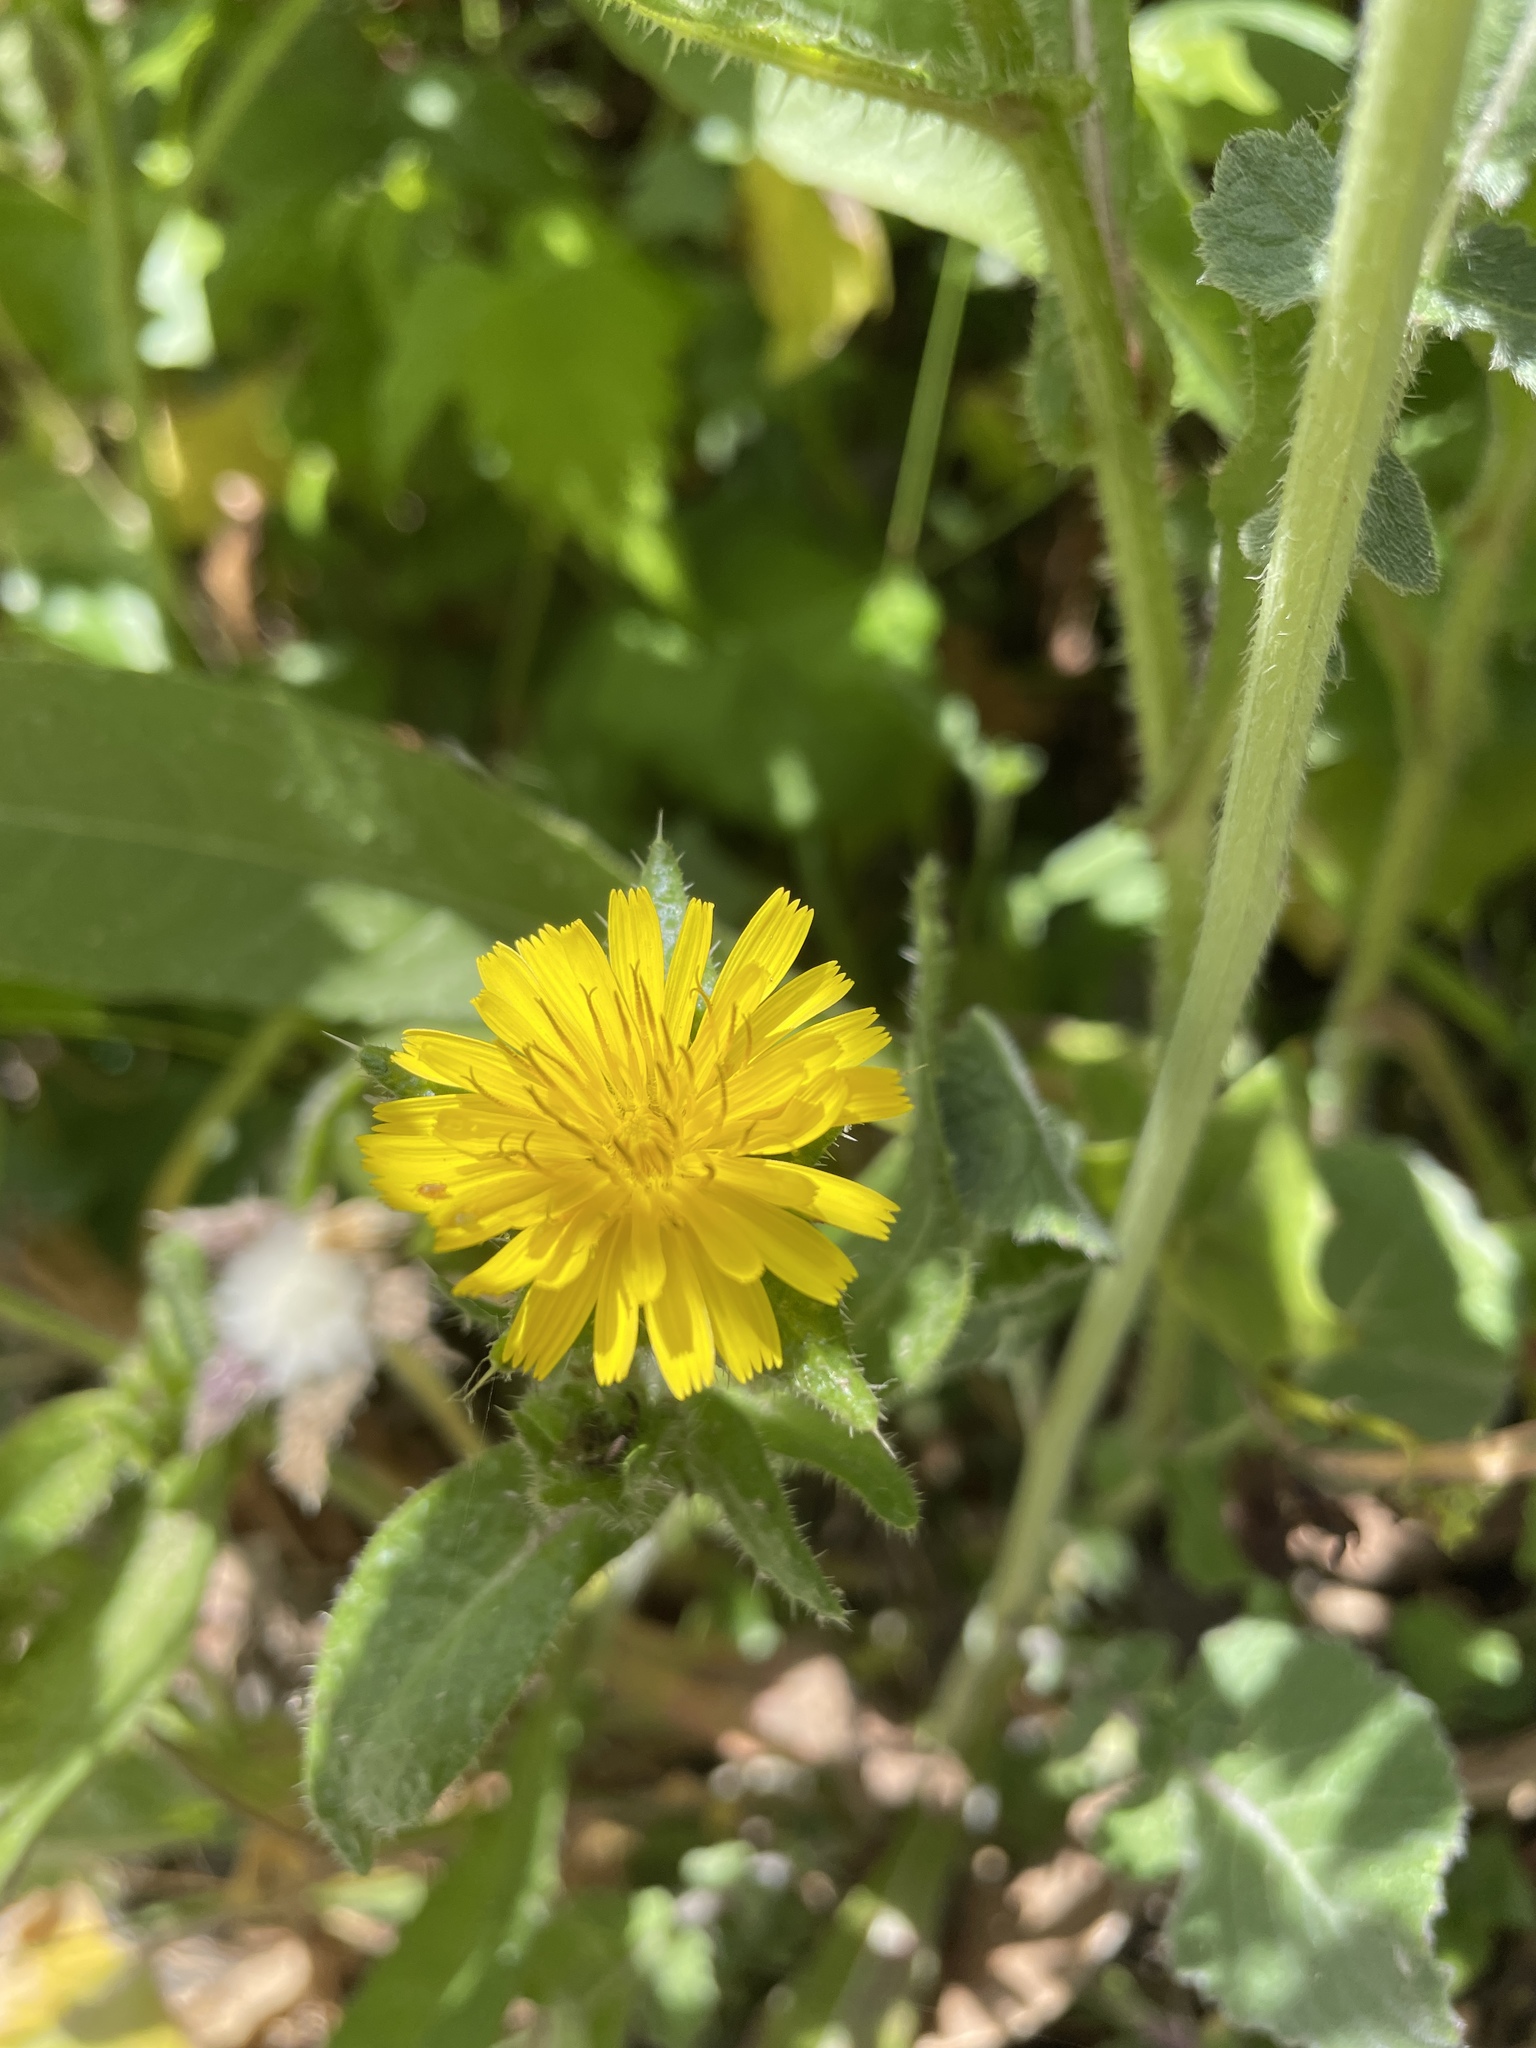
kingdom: Plantae
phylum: Tracheophyta
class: Magnoliopsida
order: Asterales
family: Asteraceae
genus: Helminthotheca
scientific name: Helminthotheca echioides
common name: Ox-tongue
